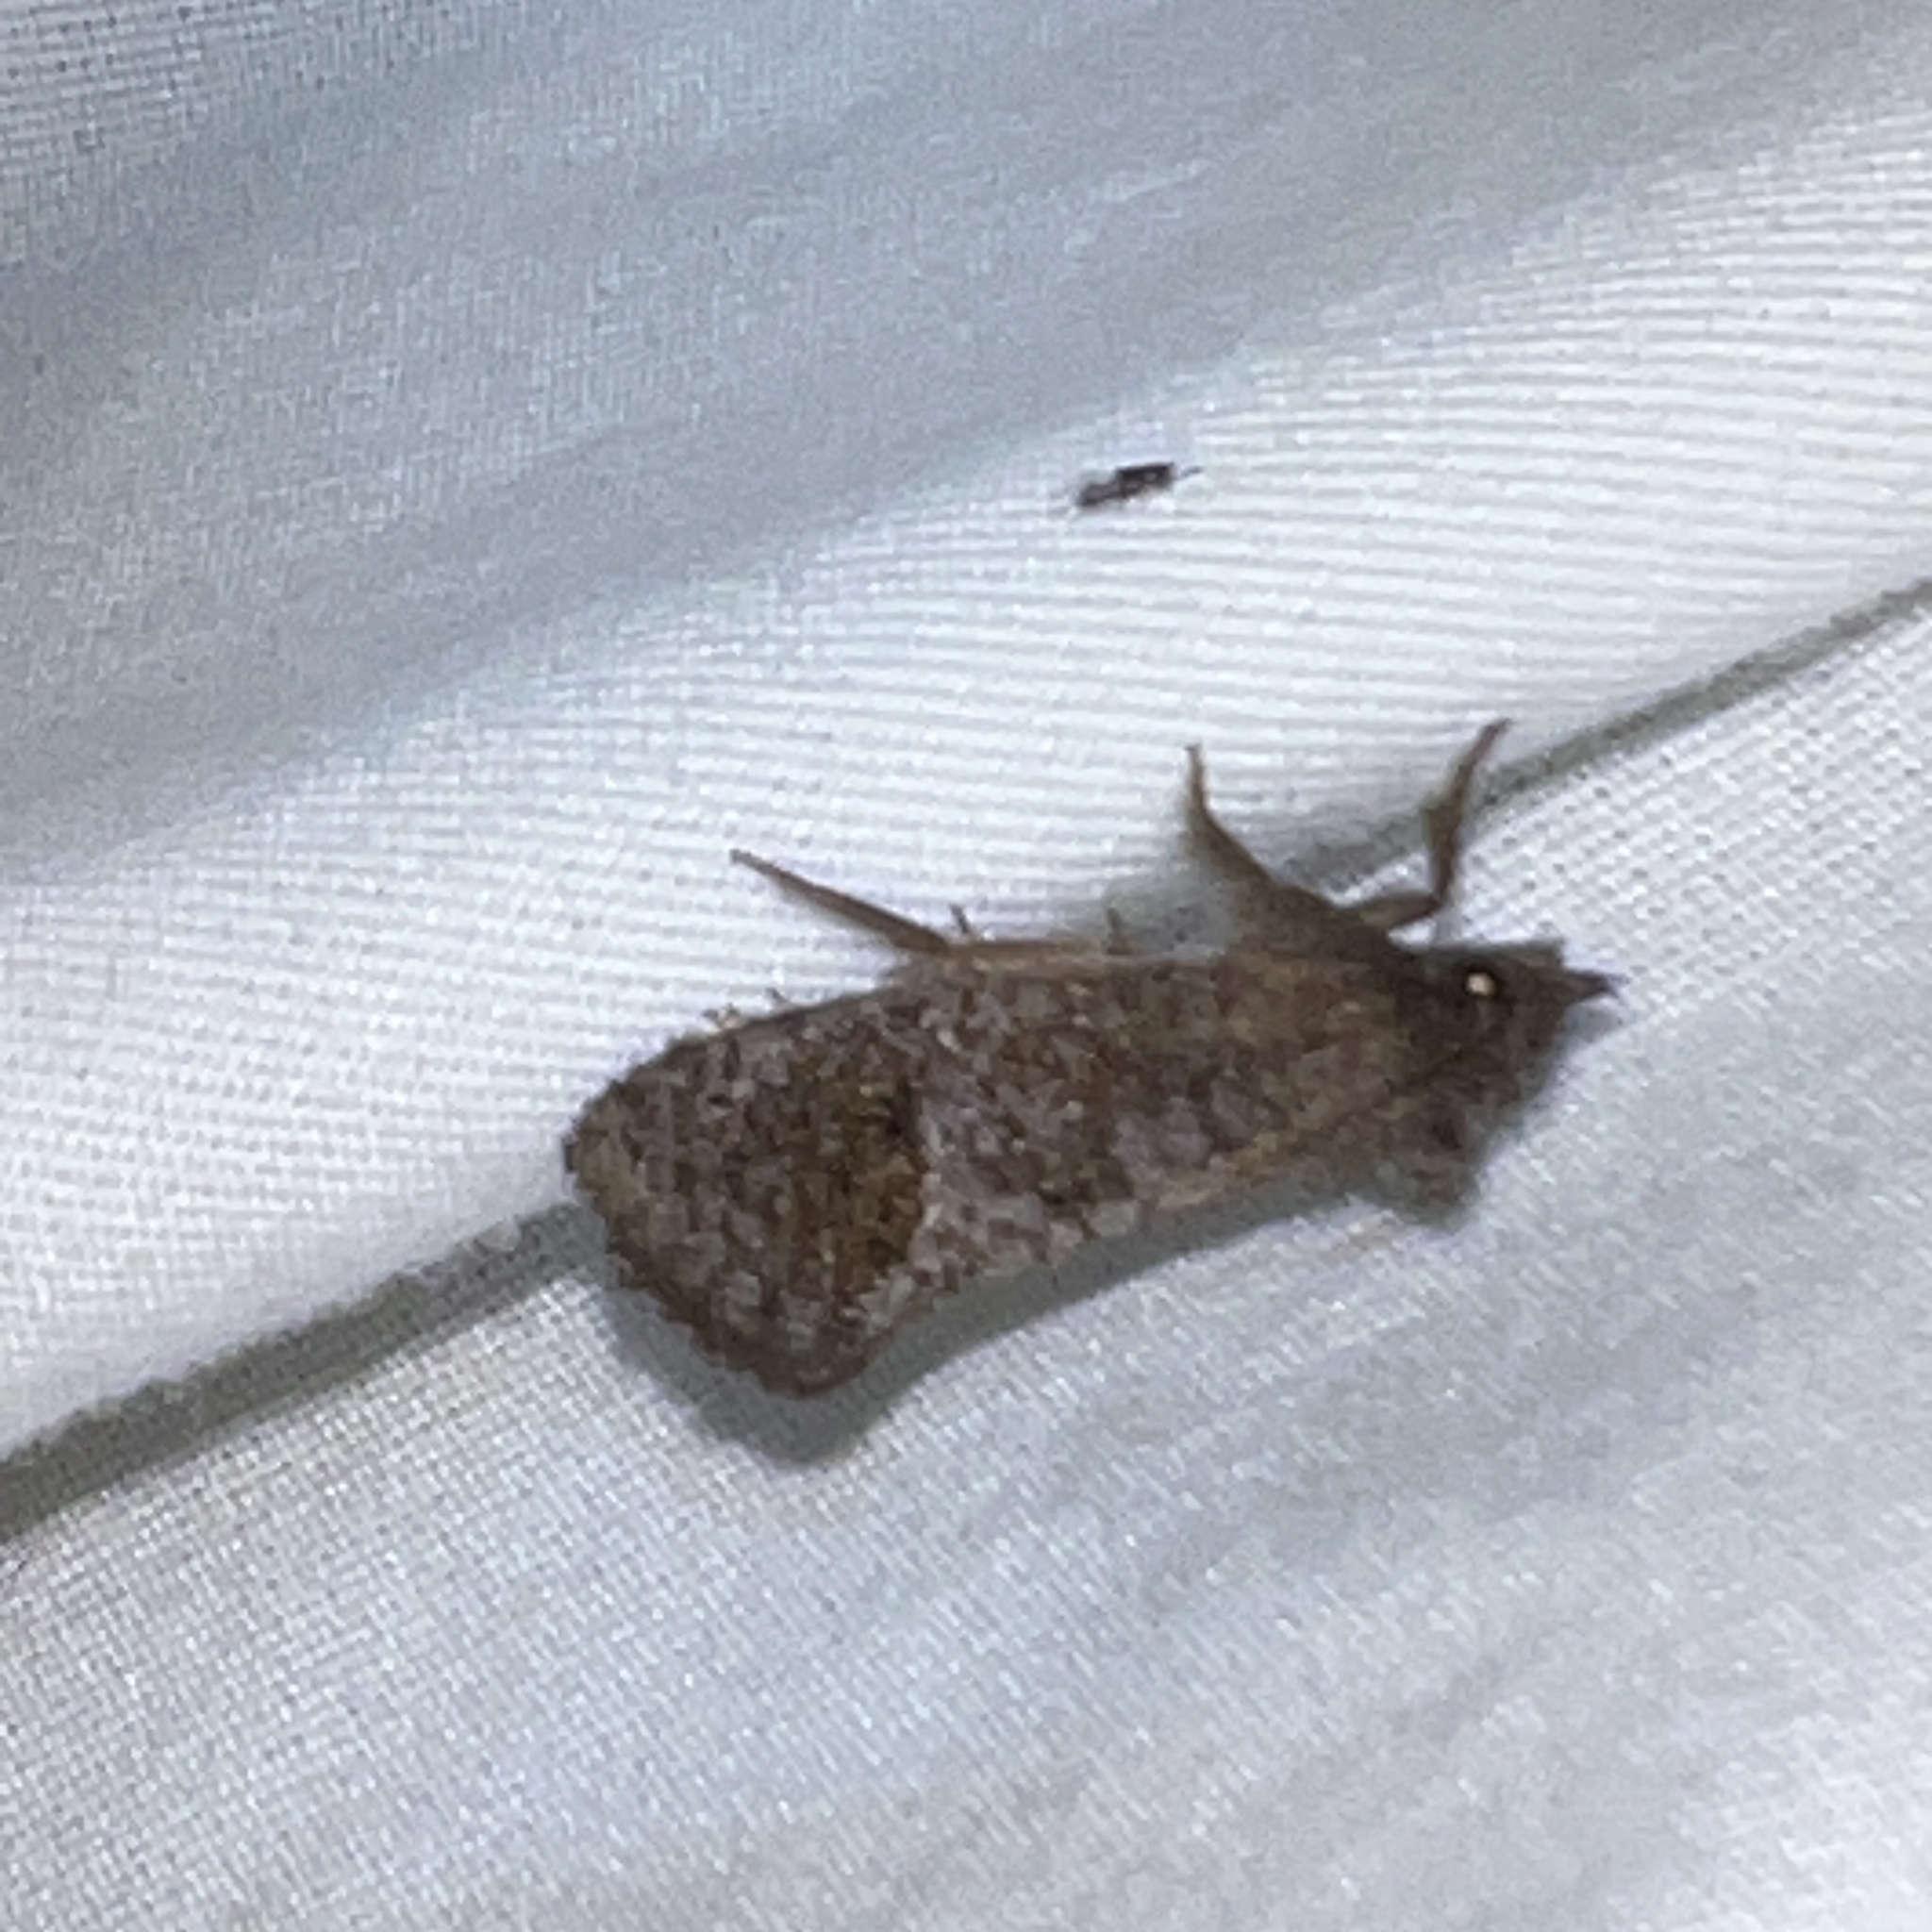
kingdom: Animalia
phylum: Arthropoda
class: Insecta
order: Lepidoptera
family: Tineidae
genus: Acrolophus
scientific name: Acrolophus texanella
